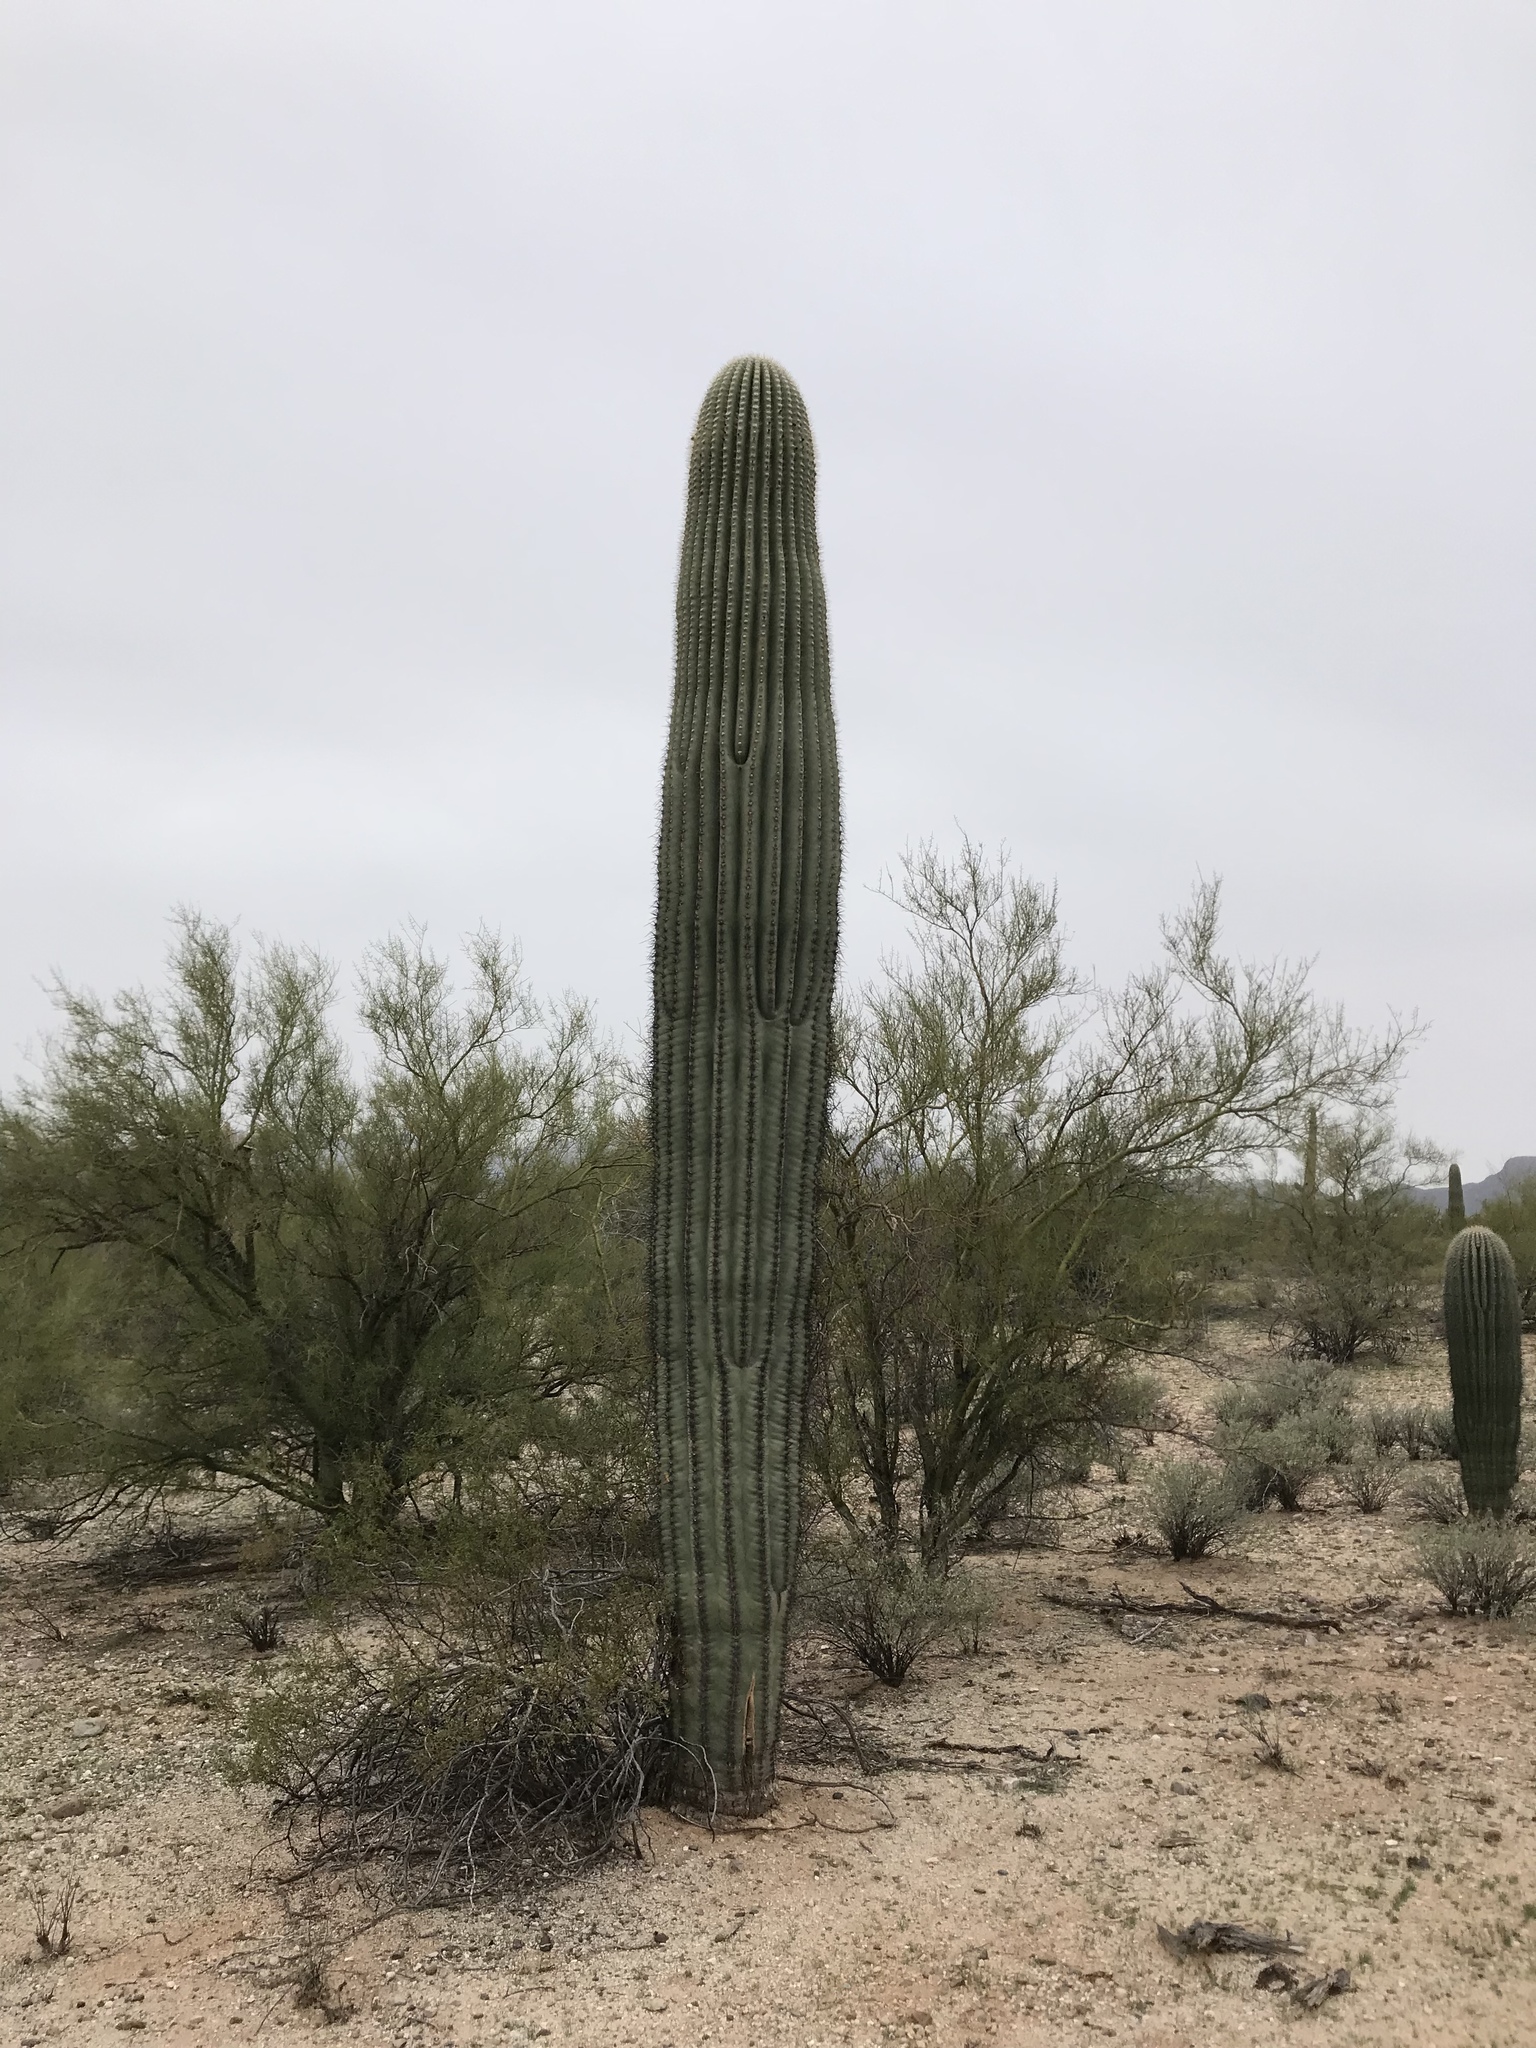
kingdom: Plantae
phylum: Tracheophyta
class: Magnoliopsida
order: Caryophyllales
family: Cactaceae
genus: Carnegiea
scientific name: Carnegiea gigantea
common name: Saguaro
